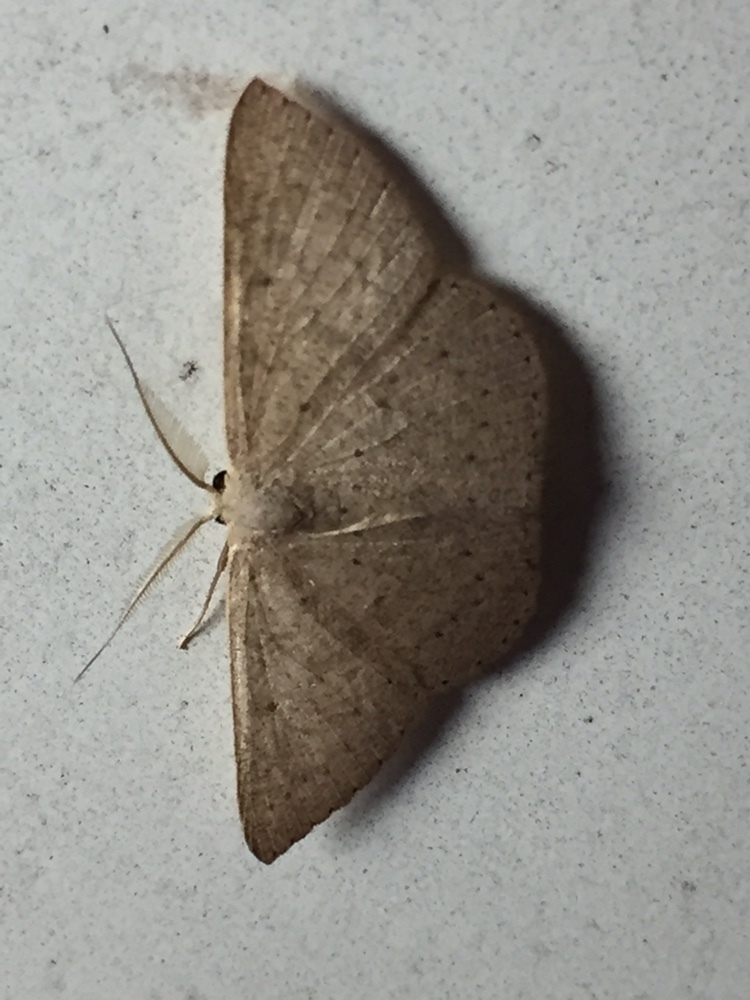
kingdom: Animalia
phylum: Arthropoda
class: Insecta
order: Lepidoptera
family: Geometridae
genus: Cyclophora
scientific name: Cyclophora obstataria
